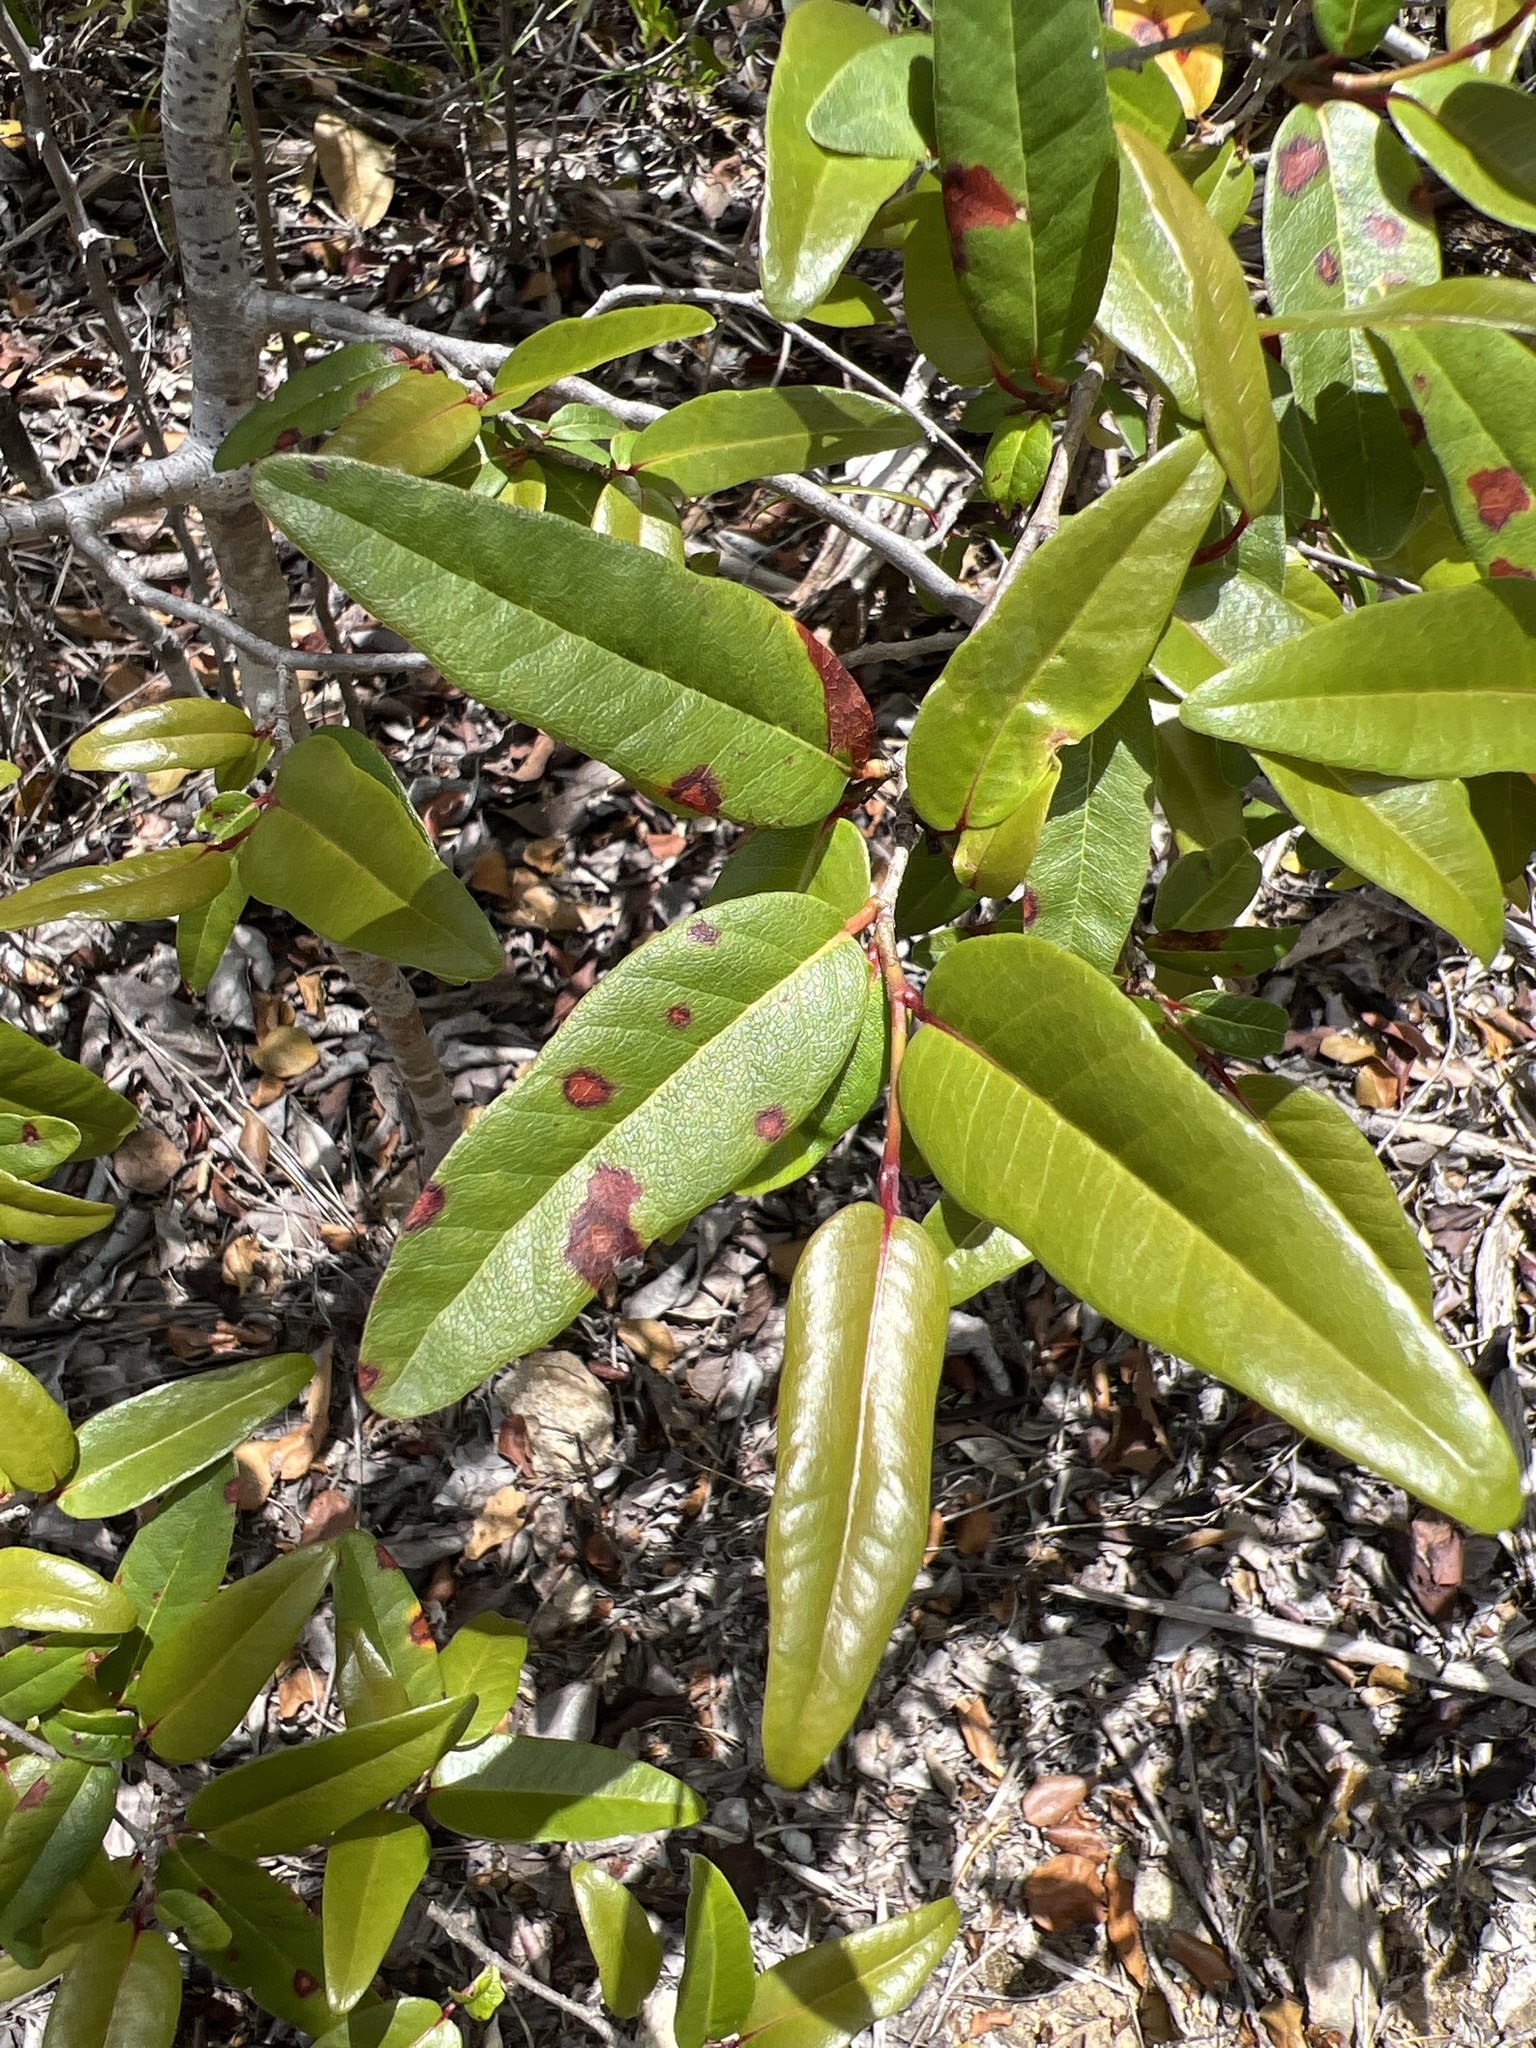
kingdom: Plantae
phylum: Tracheophyta
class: Magnoliopsida
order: Caryophyllales
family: Polygonaceae
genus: Coccoloba
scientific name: Coccoloba microstachya
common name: Puckout
